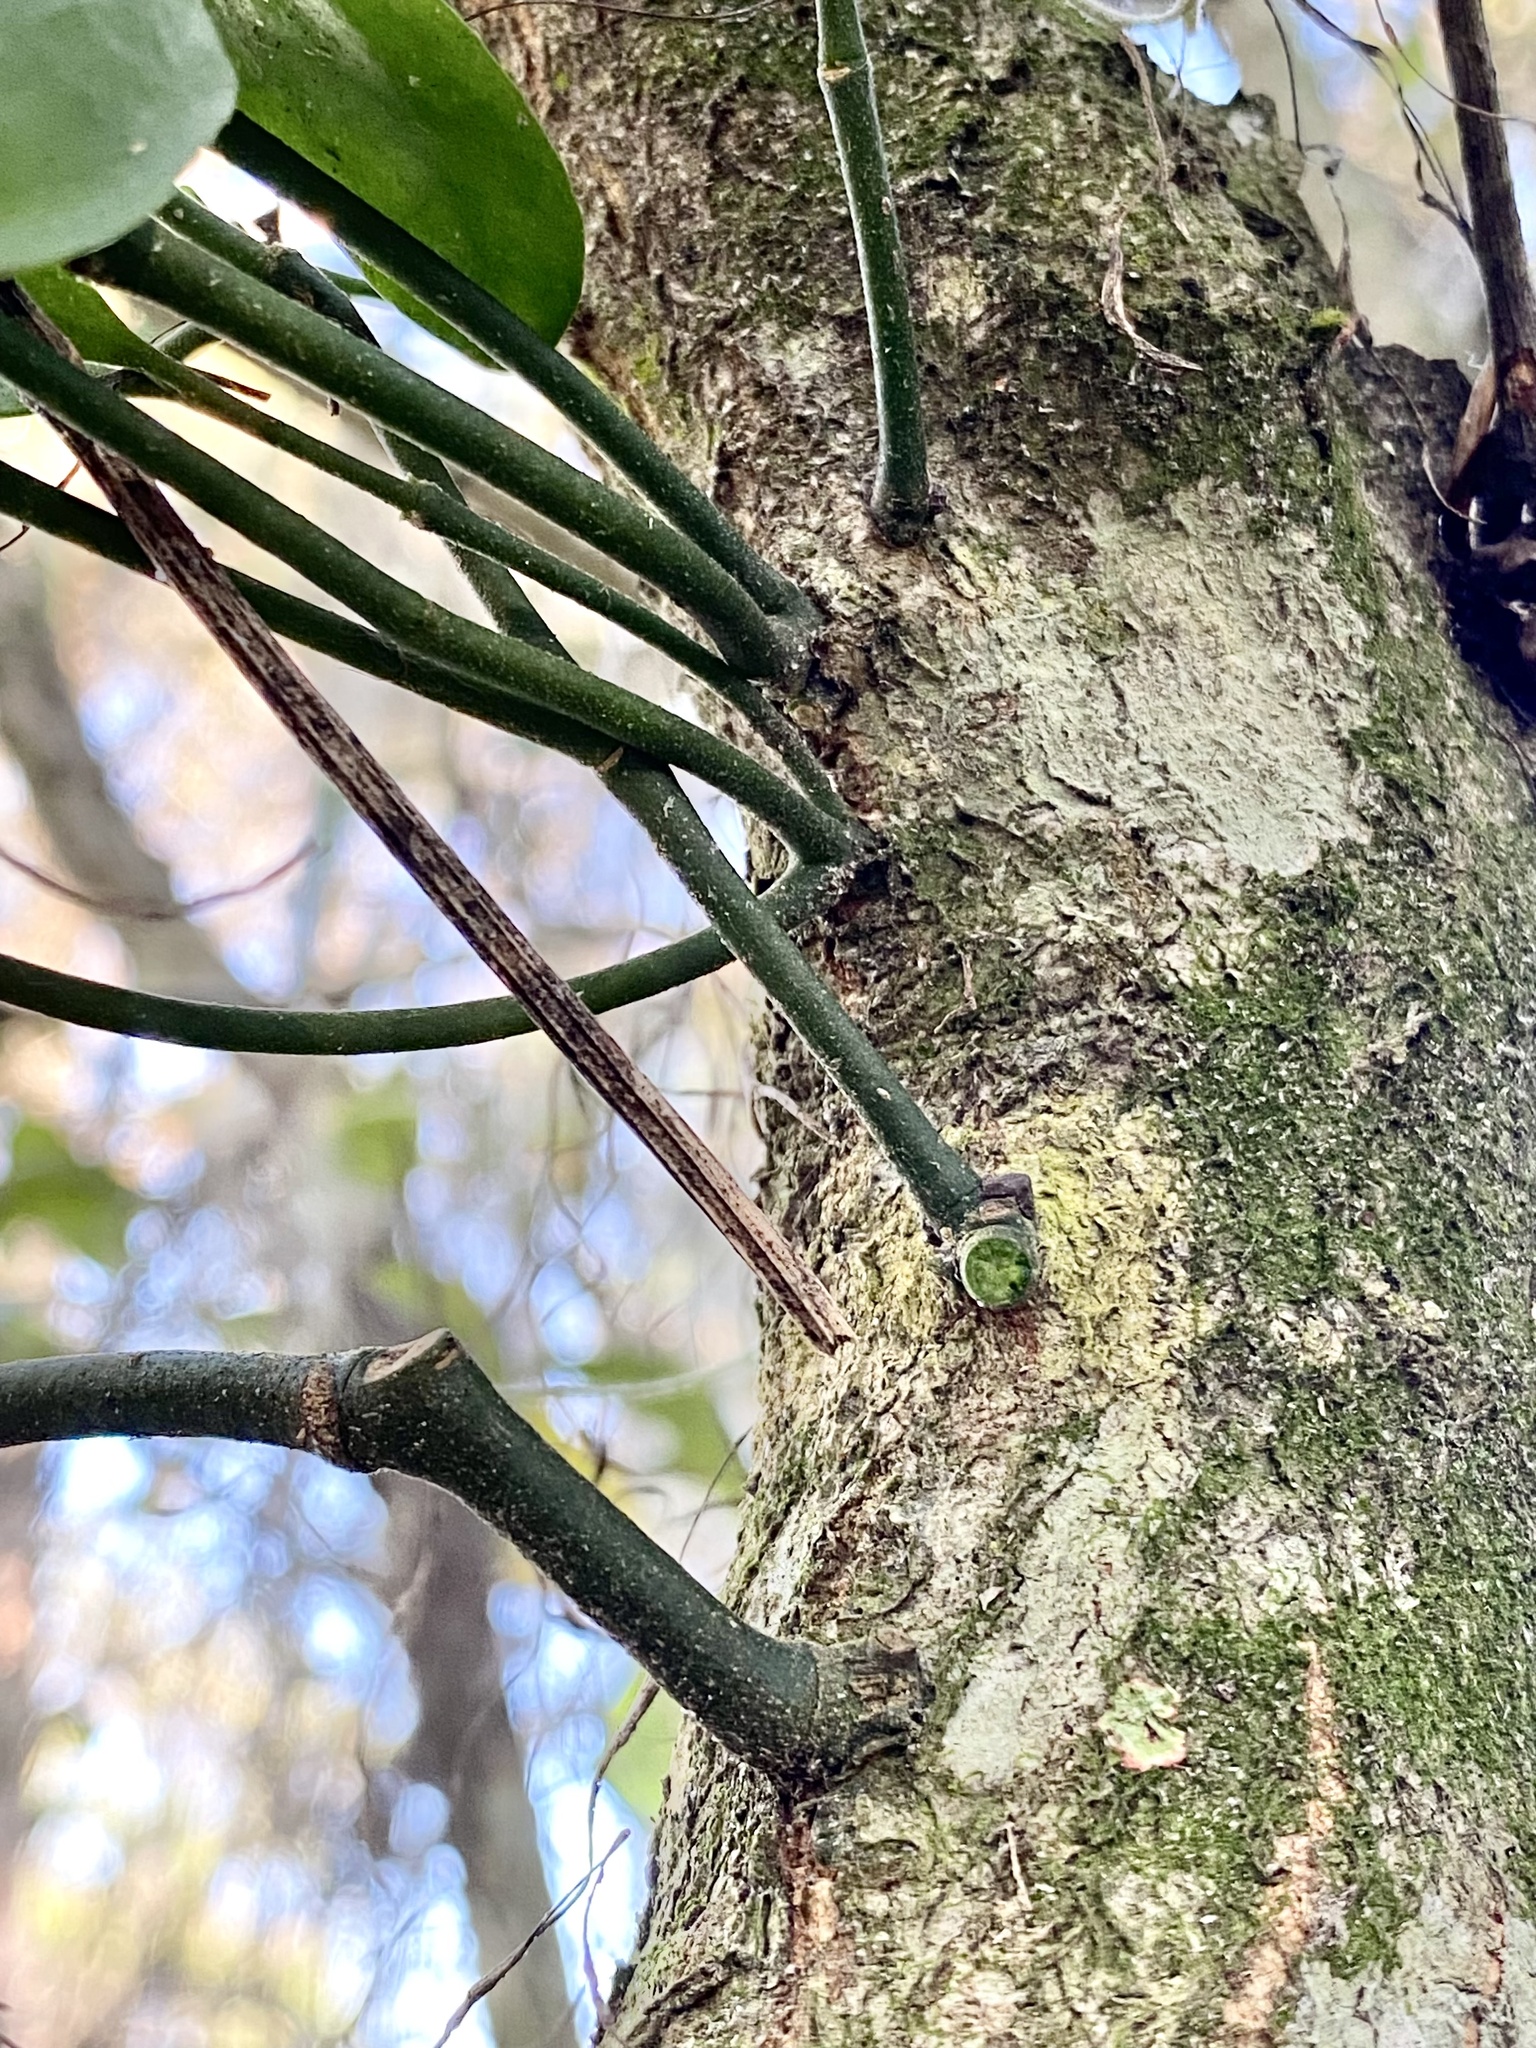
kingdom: Plantae
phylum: Tracheophyta
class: Magnoliopsida
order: Santalales
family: Viscaceae
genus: Phoradendron
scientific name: Phoradendron leucarpum
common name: Pacific mistletoe
